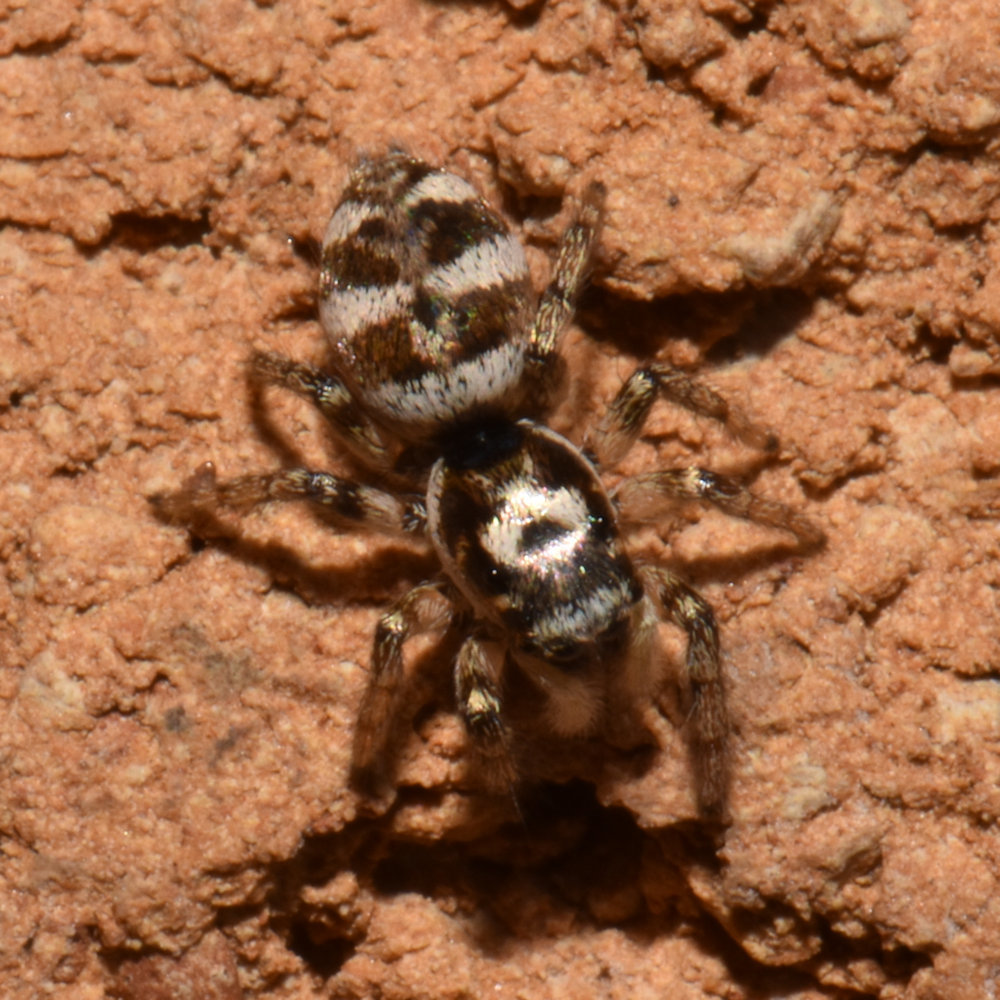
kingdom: Animalia
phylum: Arthropoda
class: Arachnida
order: Araneae
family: Salticidae
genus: Salticus
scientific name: Salticus scenicus
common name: Zebra jumper
